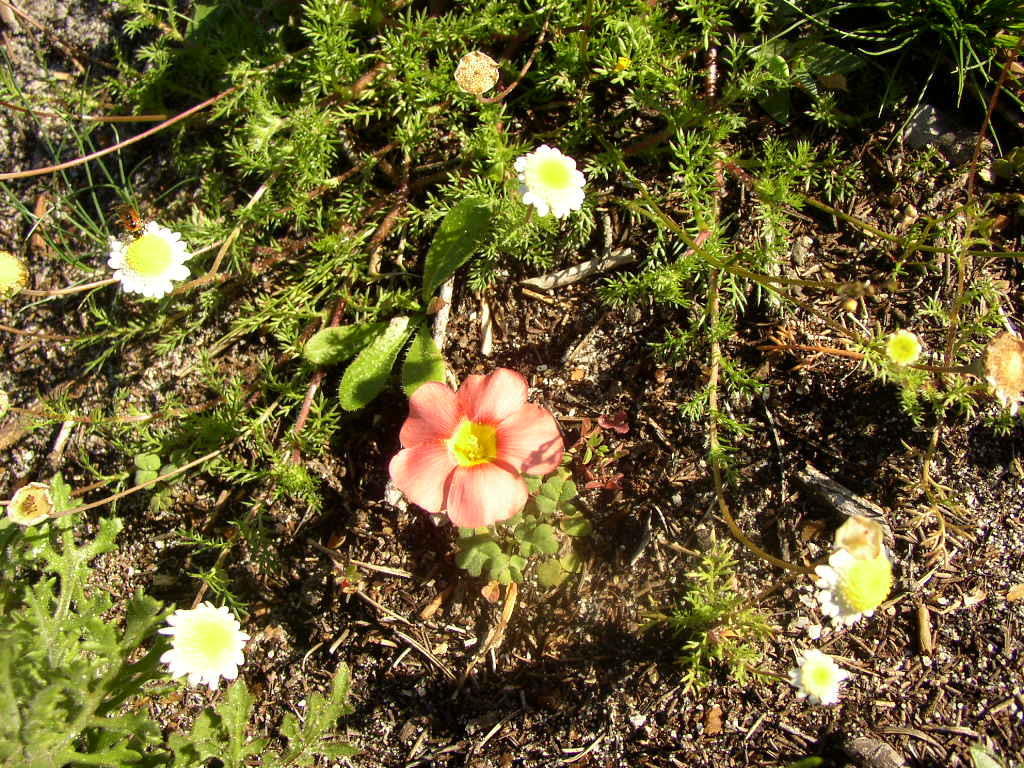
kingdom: Plantae
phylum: Tracheophyta
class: Magnoliopsida
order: Asterales
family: Asteraceae
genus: Cotula
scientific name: Cotula turbinata
